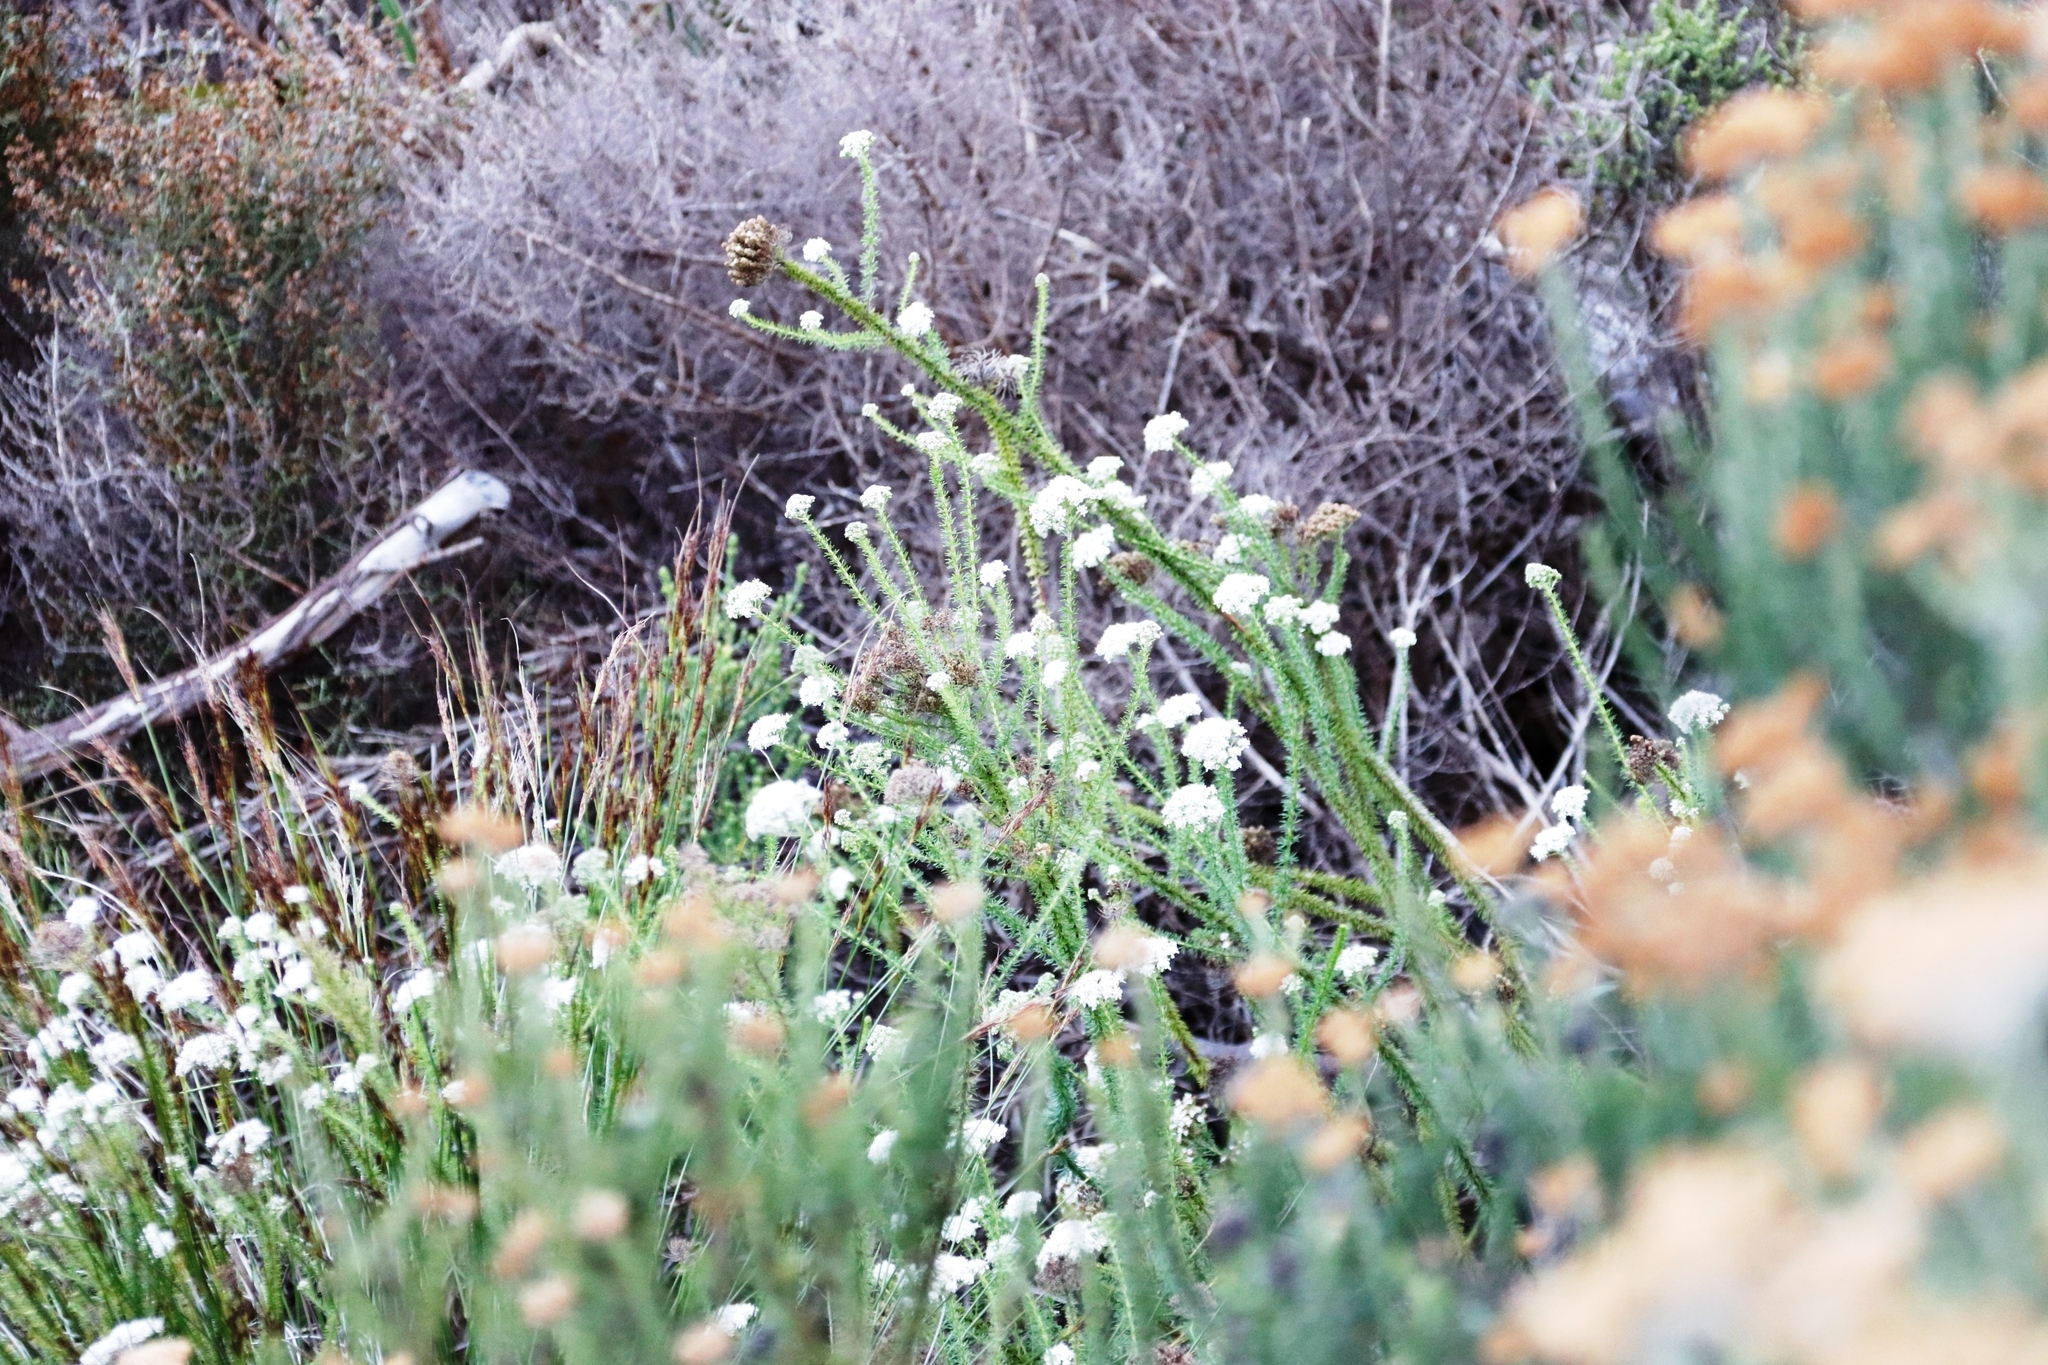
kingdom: Plantae
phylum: Tracheophyta
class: Magnoliopsida
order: Asterales
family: Asteraceae
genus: Metalasia
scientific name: Metalasia densa
